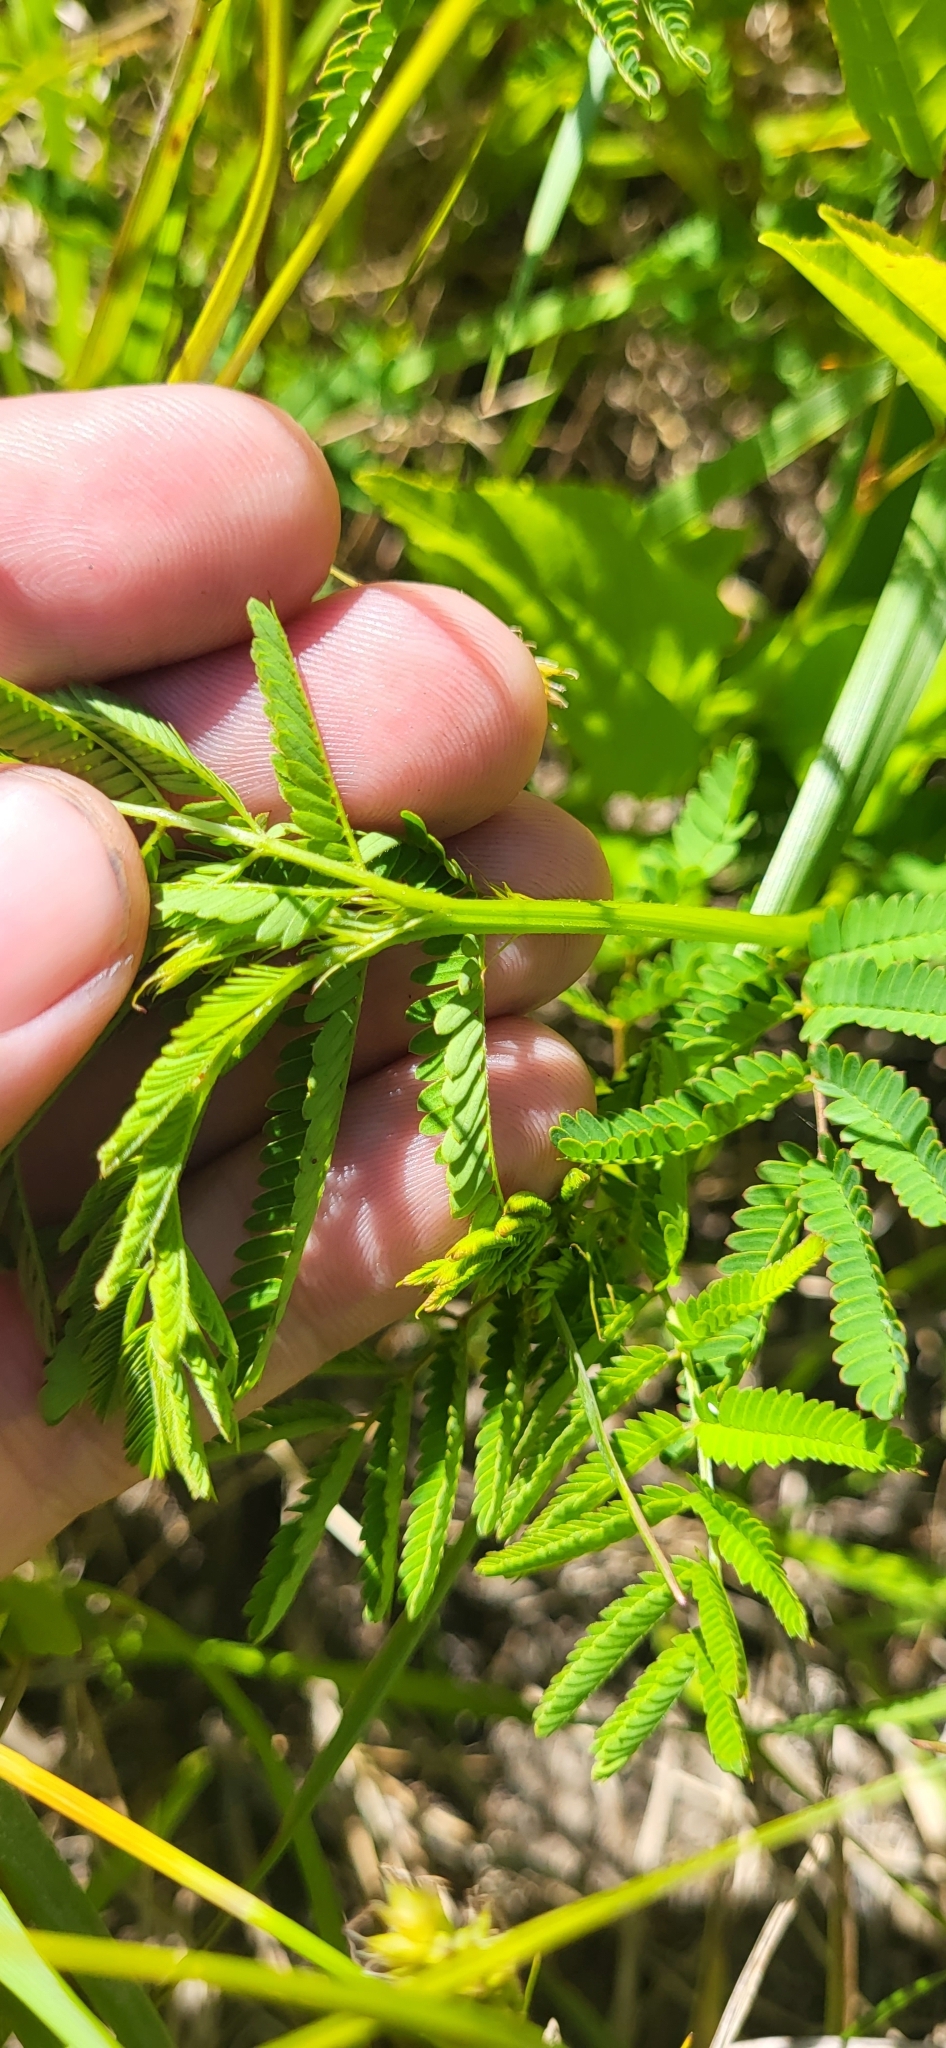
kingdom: Plantae
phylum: Tracheophyta
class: Magnoliopsida
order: Fabales
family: Fabaceae
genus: Desmanthus
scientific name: Desmanthus illinoensis
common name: Illinois bundle-flower
